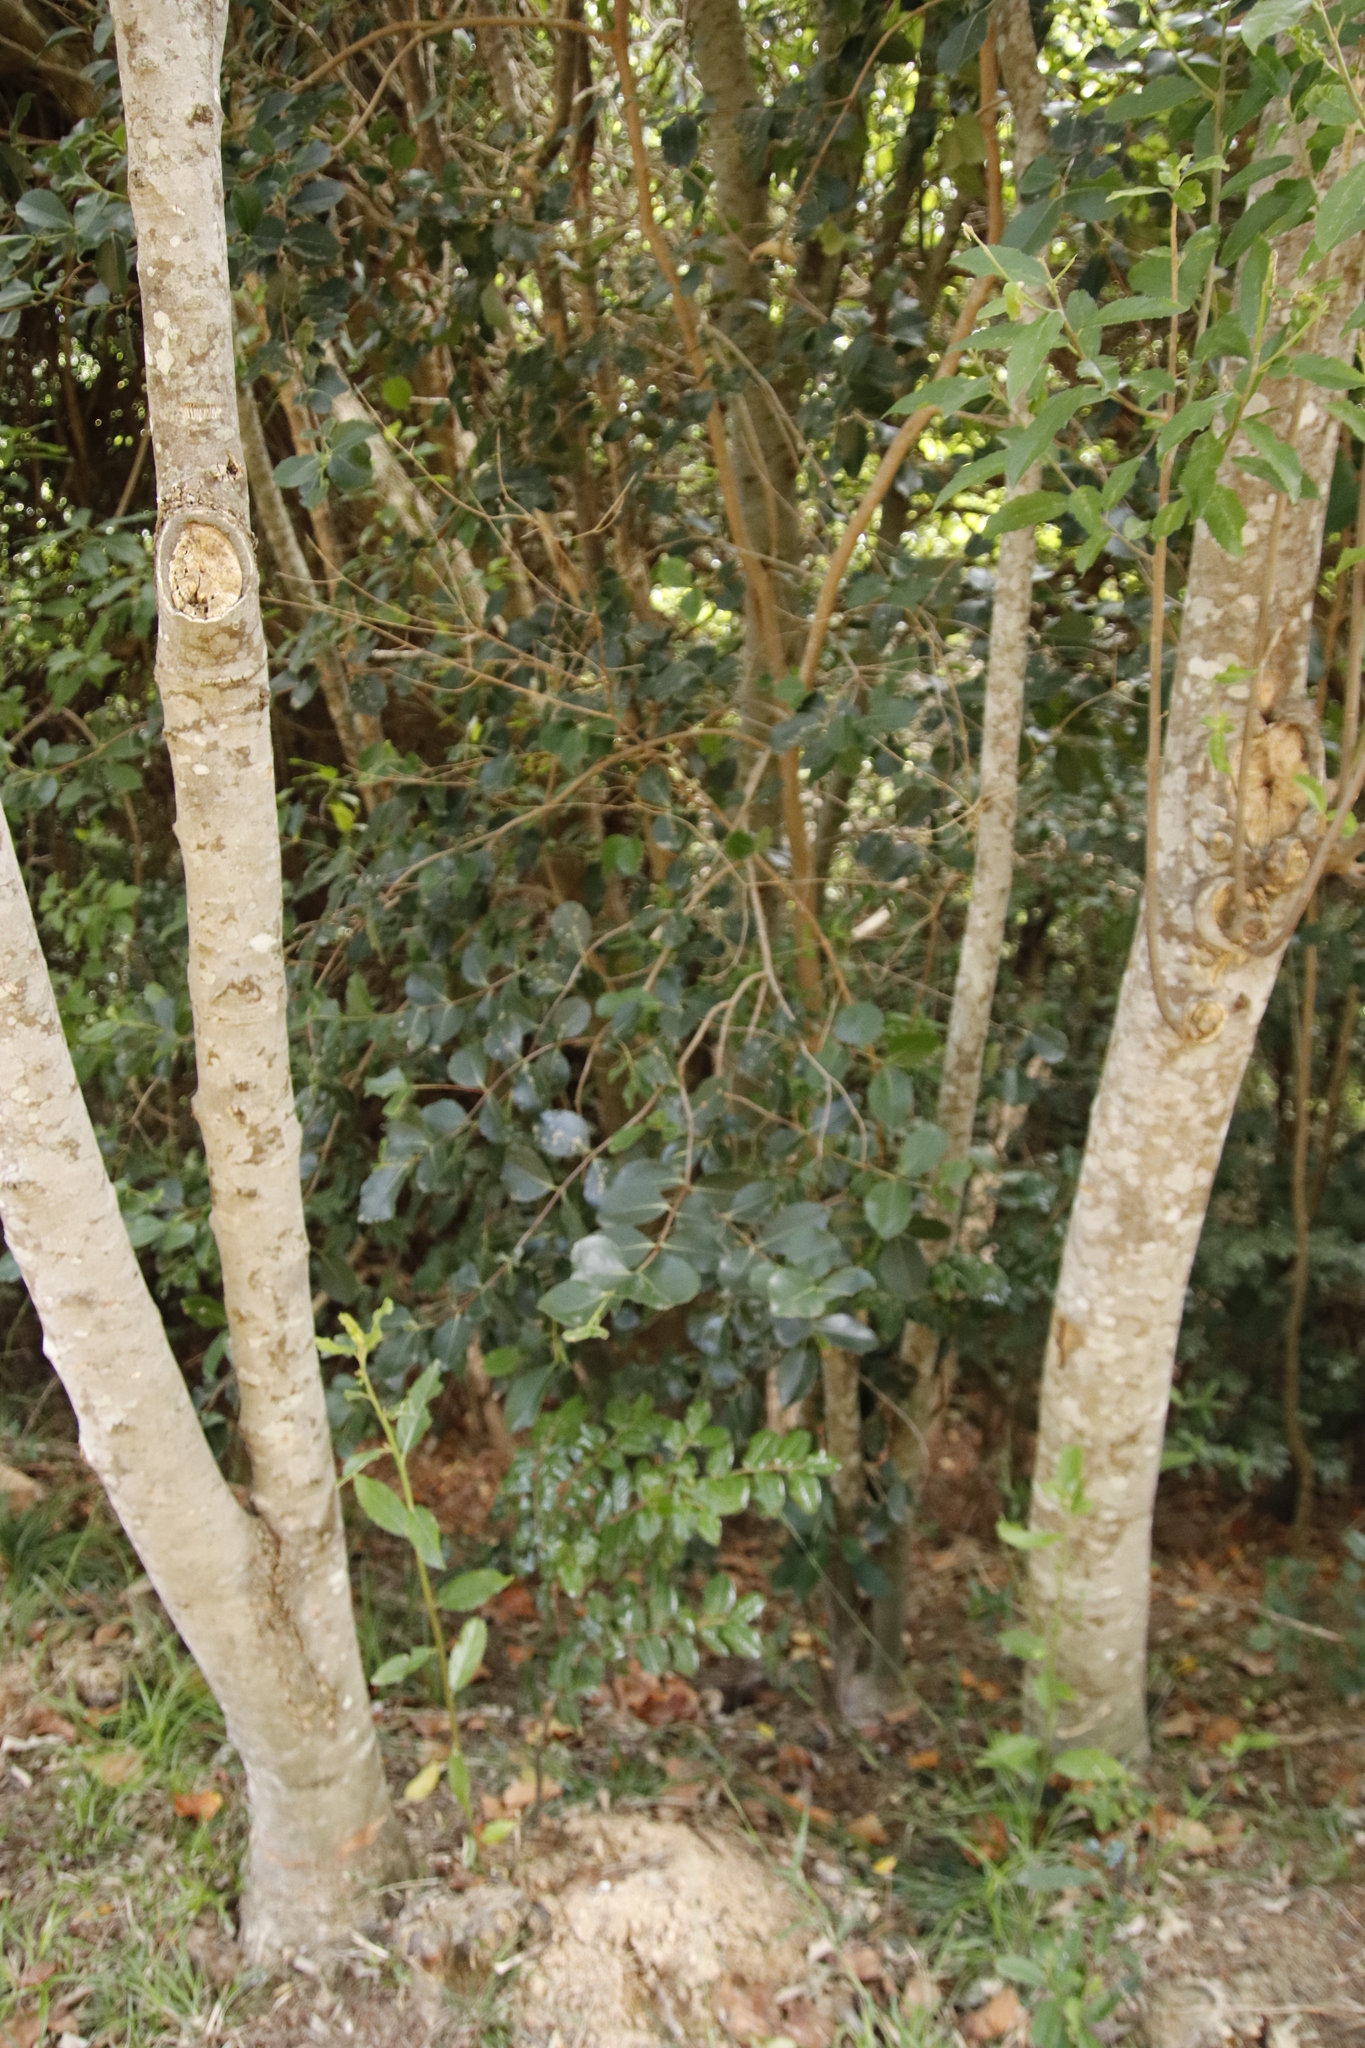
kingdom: Plantae
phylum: Tracheophyta
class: Magnoliopsida
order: Celastrales
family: Celastraceae
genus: Cassine
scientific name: Cassine peragua
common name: Cape saffron
